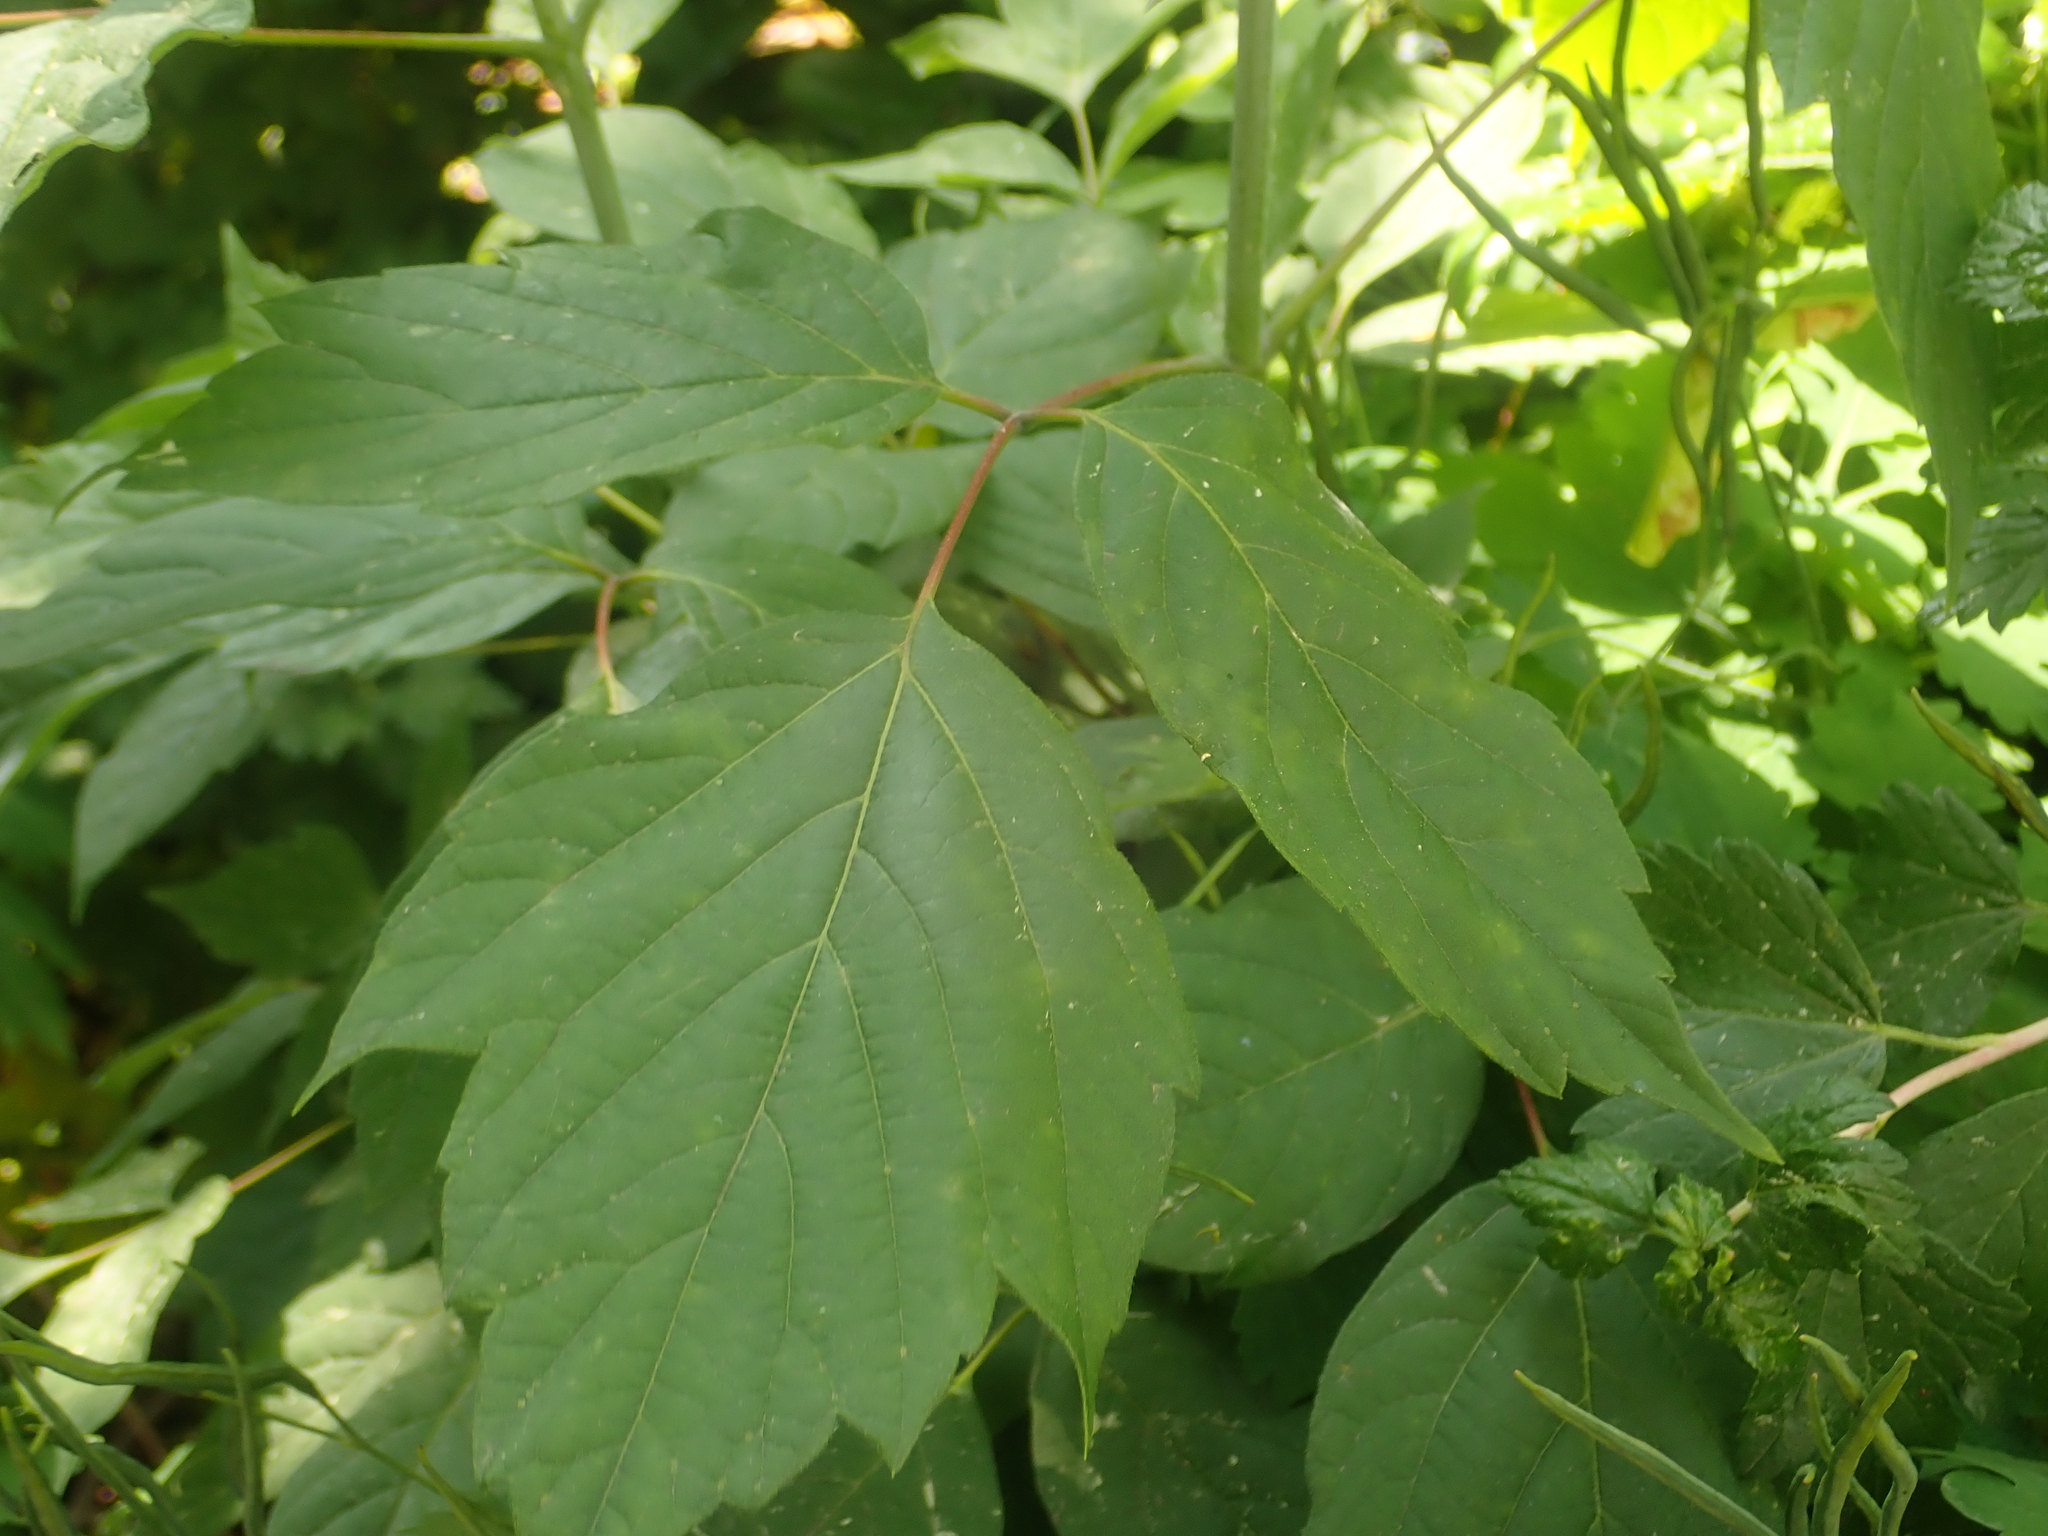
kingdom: Plantae
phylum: Tracheophyta
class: Magnoliopsida
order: Sapindales
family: Sapindaceae
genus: Acer
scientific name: Acer negundo
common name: Ashleaf maple
